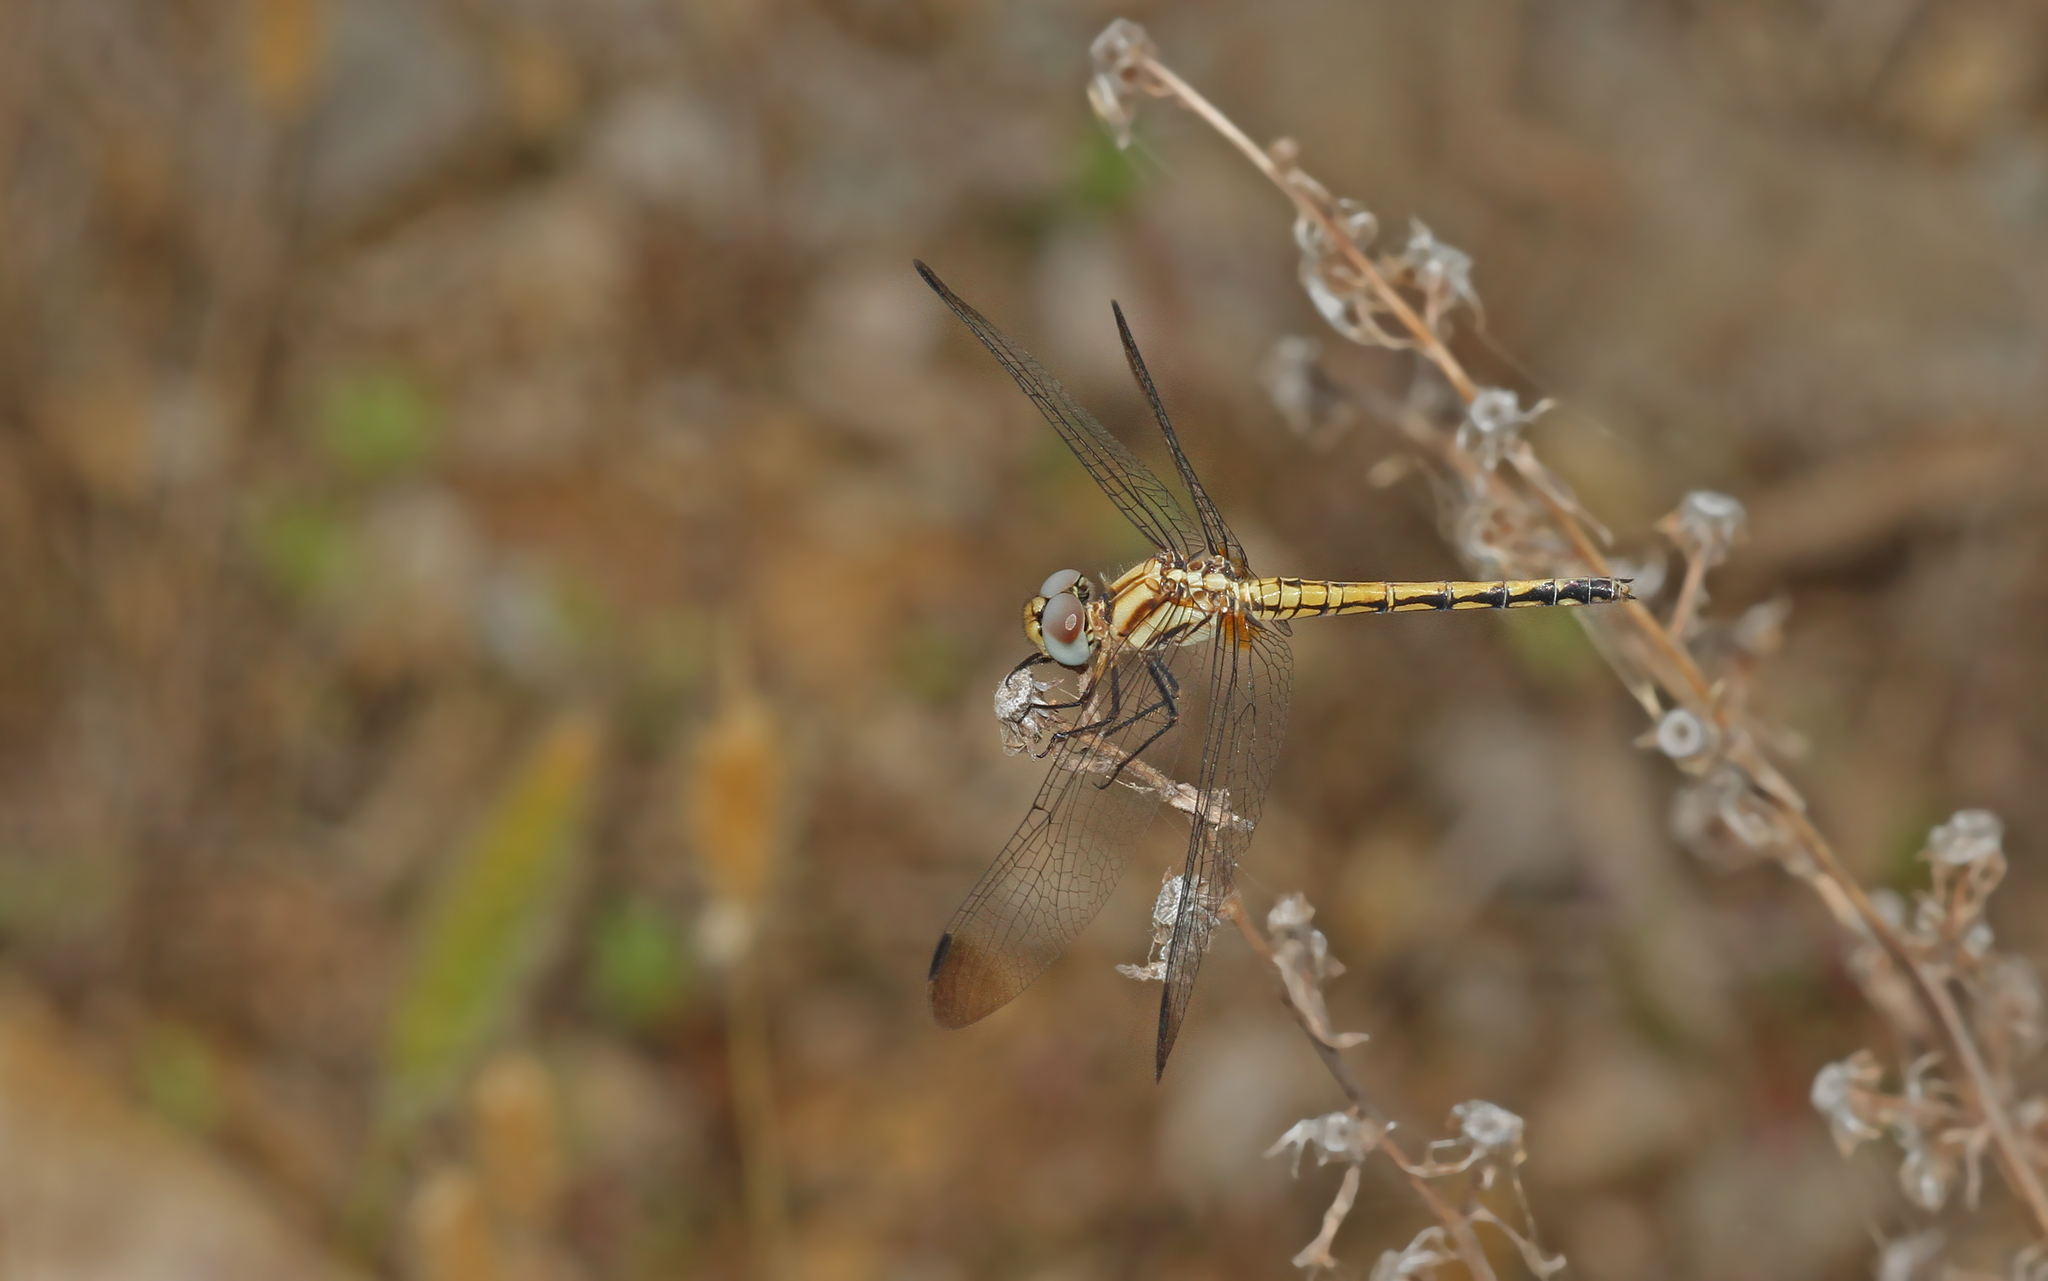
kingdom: Animalia
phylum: Arthropoda
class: Insecta
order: Odonata
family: Libellulidae
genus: Trithemis
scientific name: Trithemis festiva
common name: Indigo dropwing
